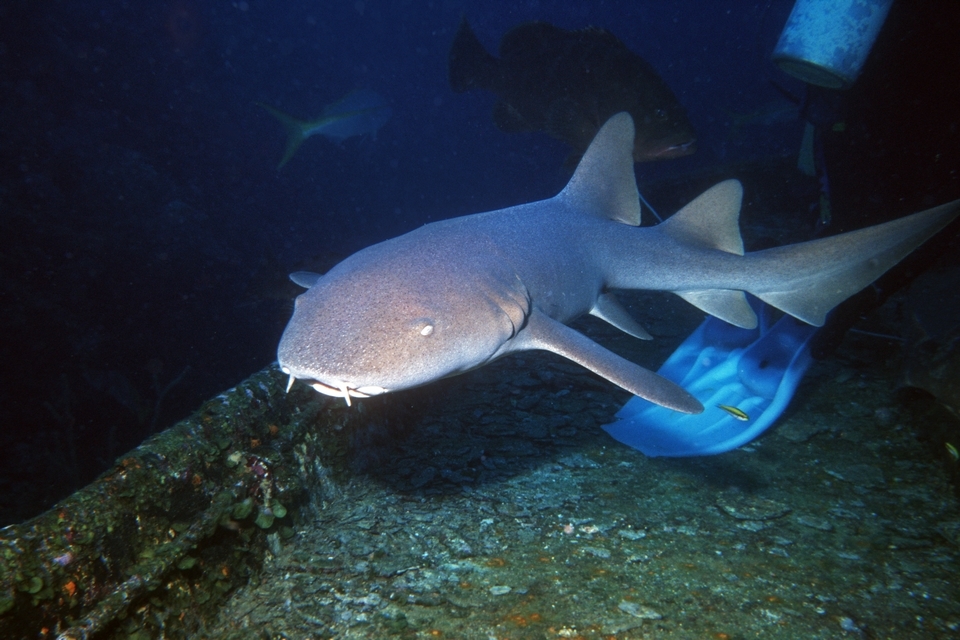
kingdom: Animalia
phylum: Chordata
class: Elasmobranchii
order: Orectolobiformes
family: Ginglymostomatidae
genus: Ginglymostoma
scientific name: Ginglymostoma cirratum
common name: Nurse shark
